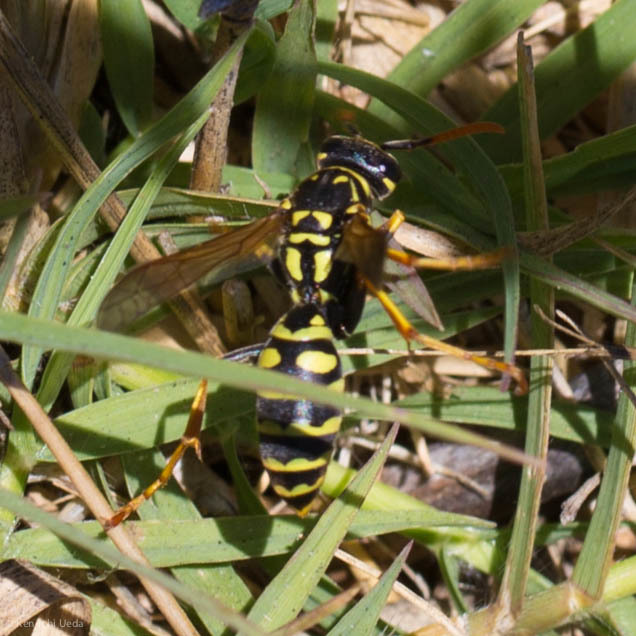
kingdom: Animalia
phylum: Arthropoda
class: Insecta
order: Hymenoptera
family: Eumenidae
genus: Polistes
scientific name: Polistes dominula
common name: Paper wasp
